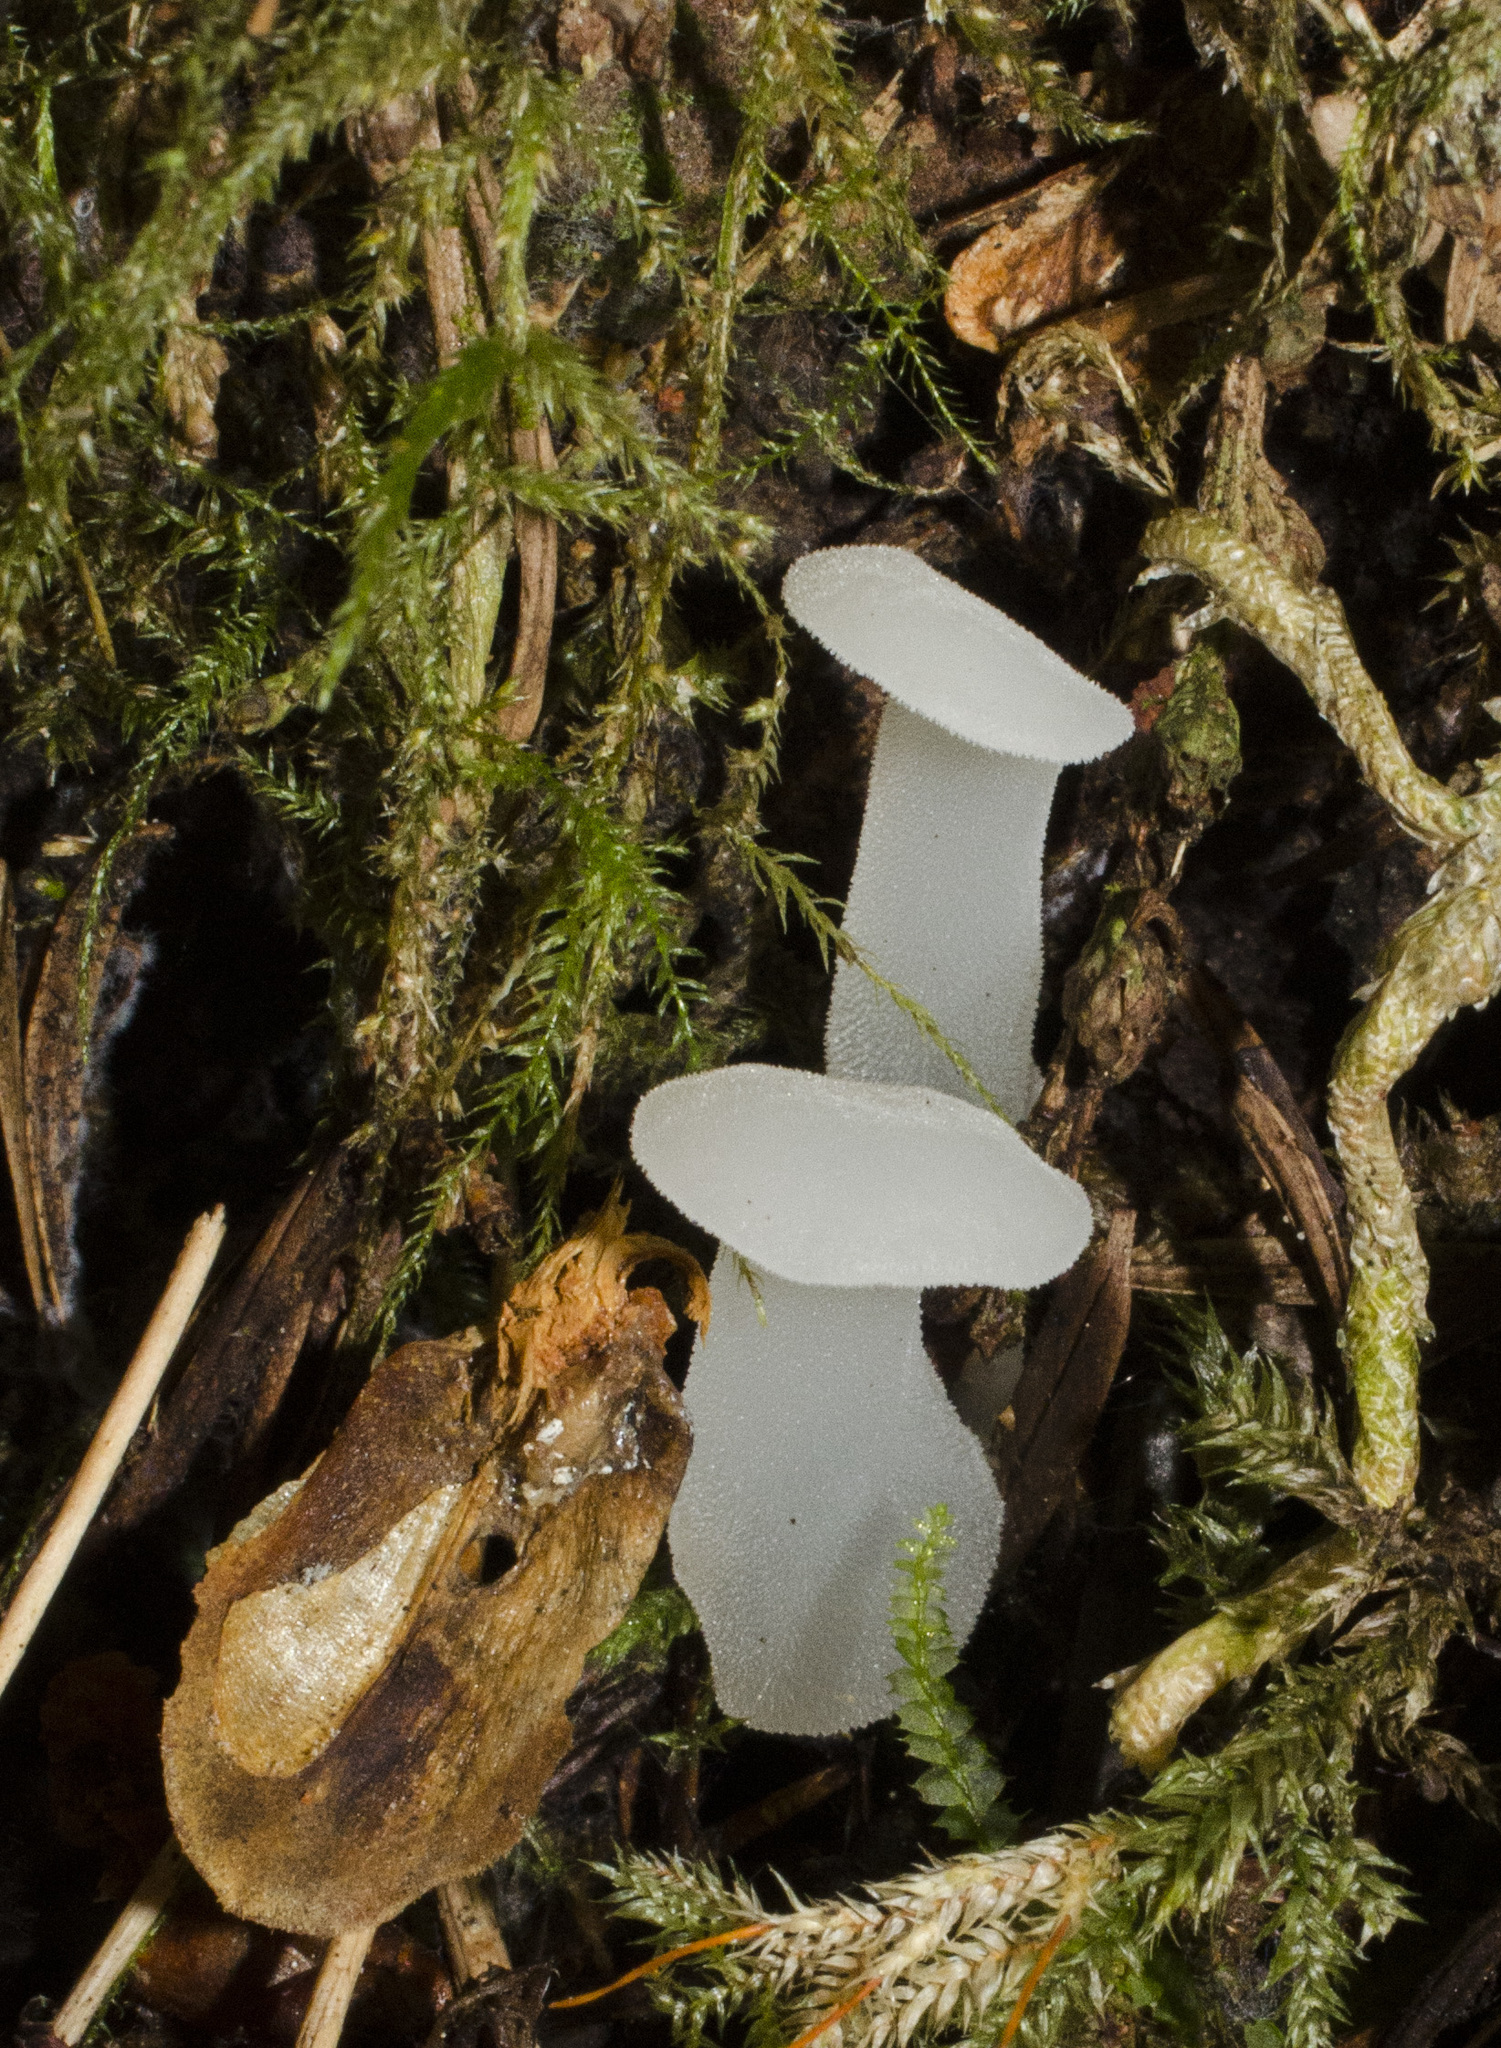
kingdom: Fungi
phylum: Basidiomycota
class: Agaricomycetes
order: Auriculariales
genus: Pseudohydnum
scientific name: Pseudohydnum gelatinosum
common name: Jelly tongue
